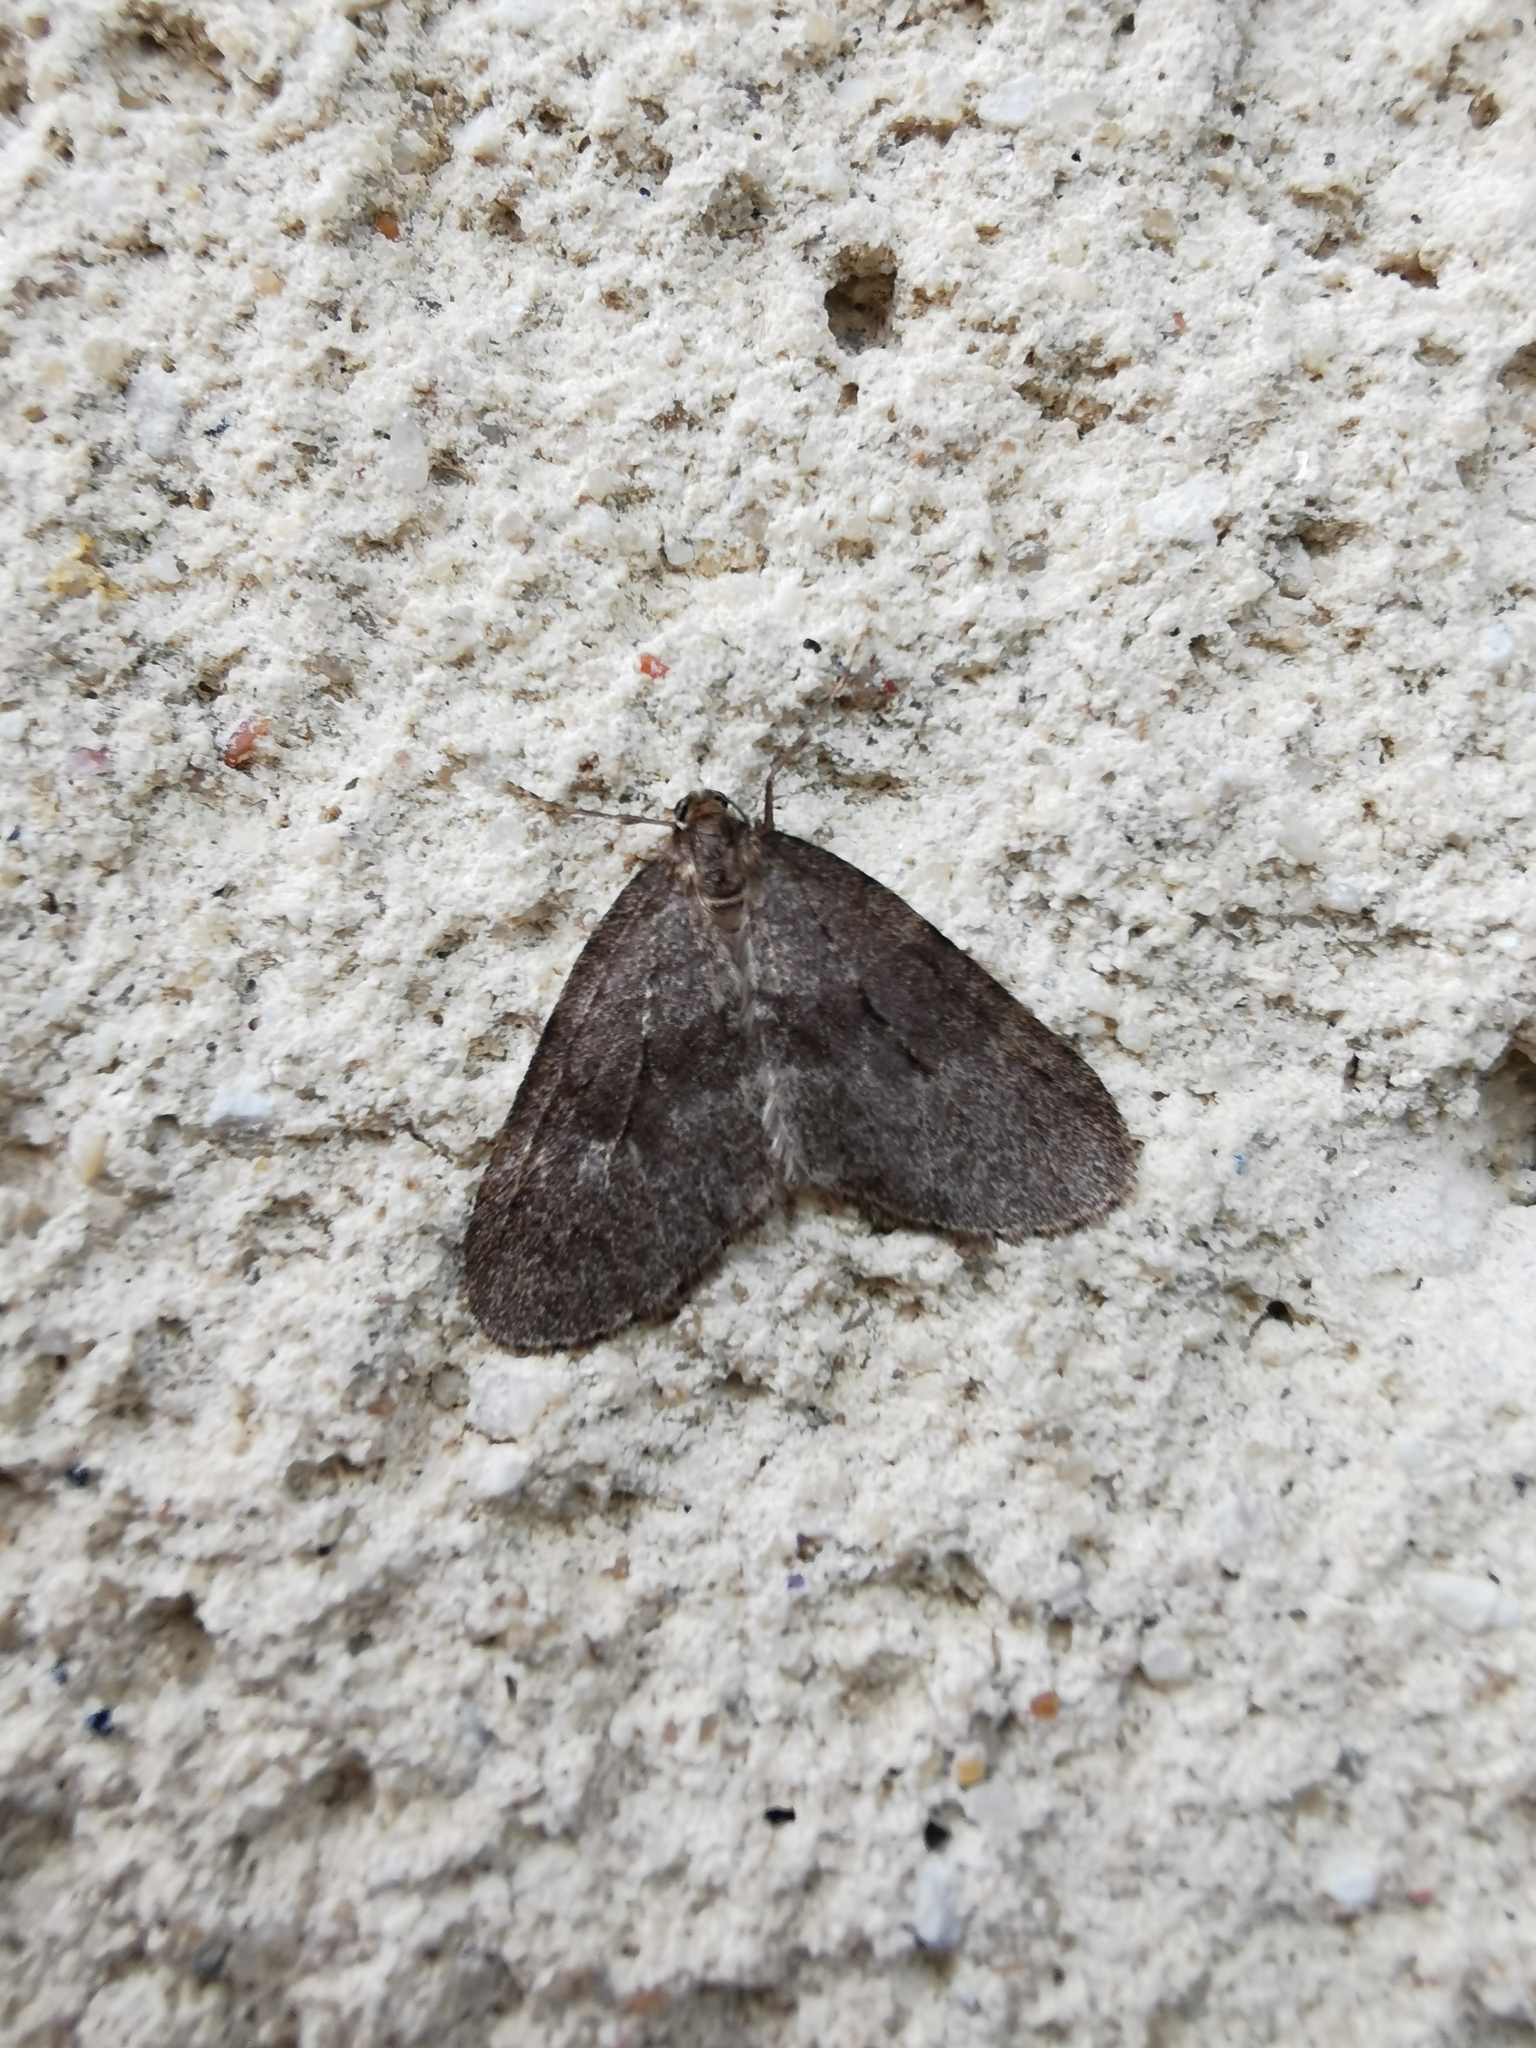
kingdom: Animalia
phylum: Arthropoda
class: Insecta
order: Lepidoptera
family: Geometridae
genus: Operophtera
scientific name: Operophtera brumata
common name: Winter moth
